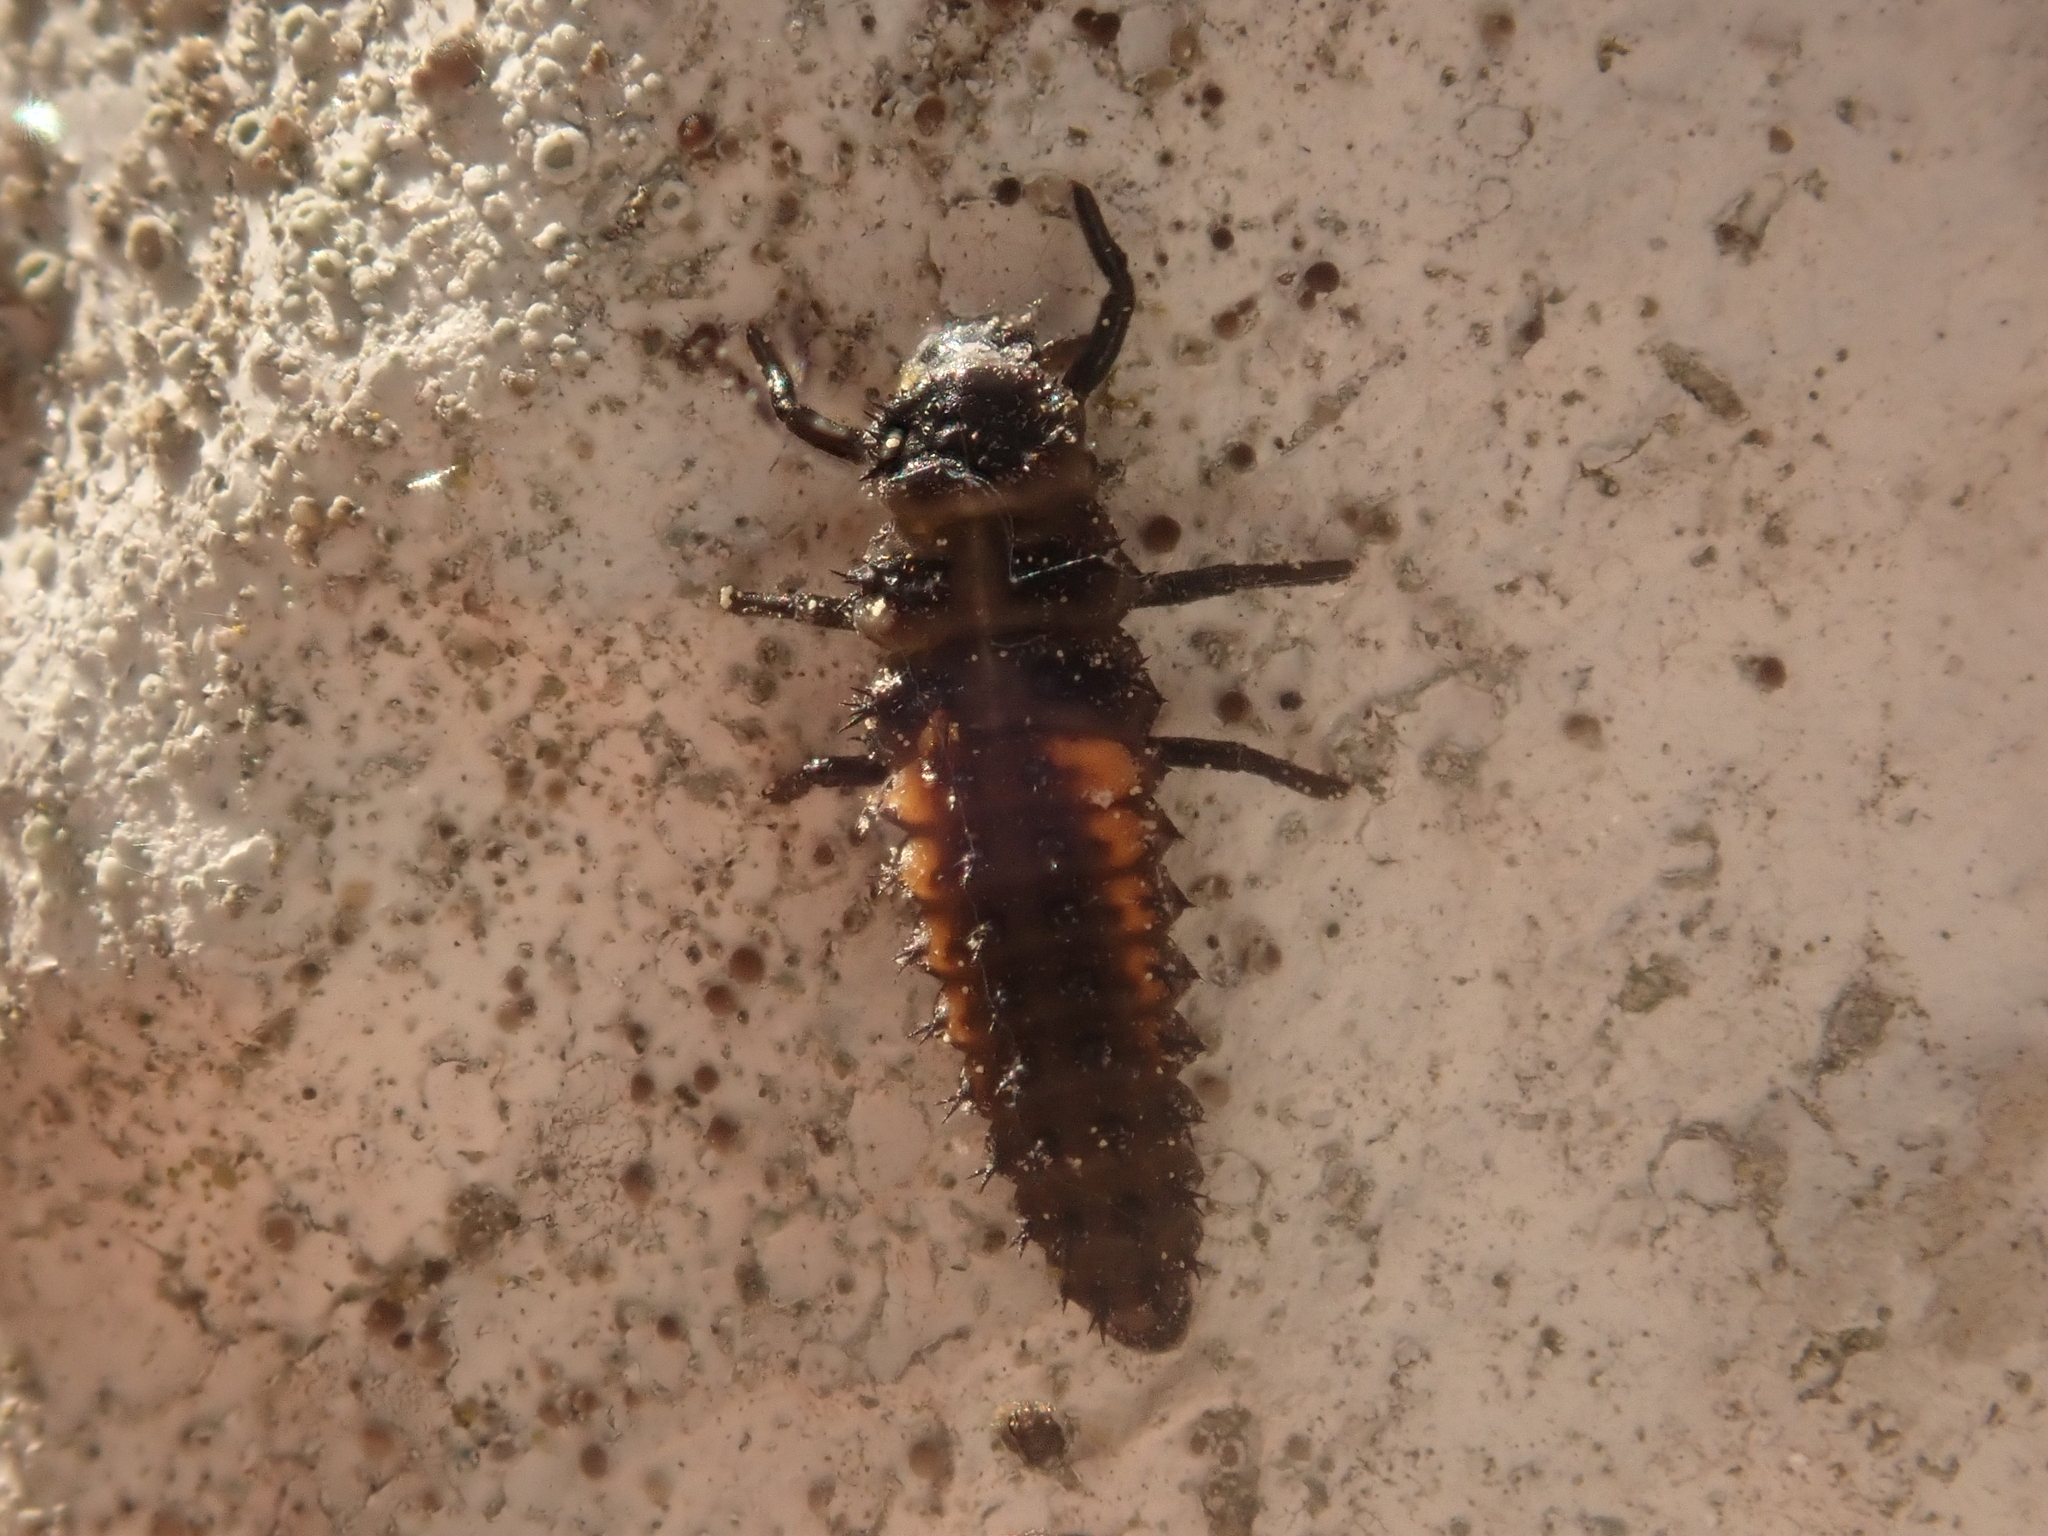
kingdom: Animalia
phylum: Arthropoda
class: Insecta
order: Coleoptera
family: Coccinellidae
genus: Harmonia
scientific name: Harmonia axyridis
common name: Harlequin ladybird
